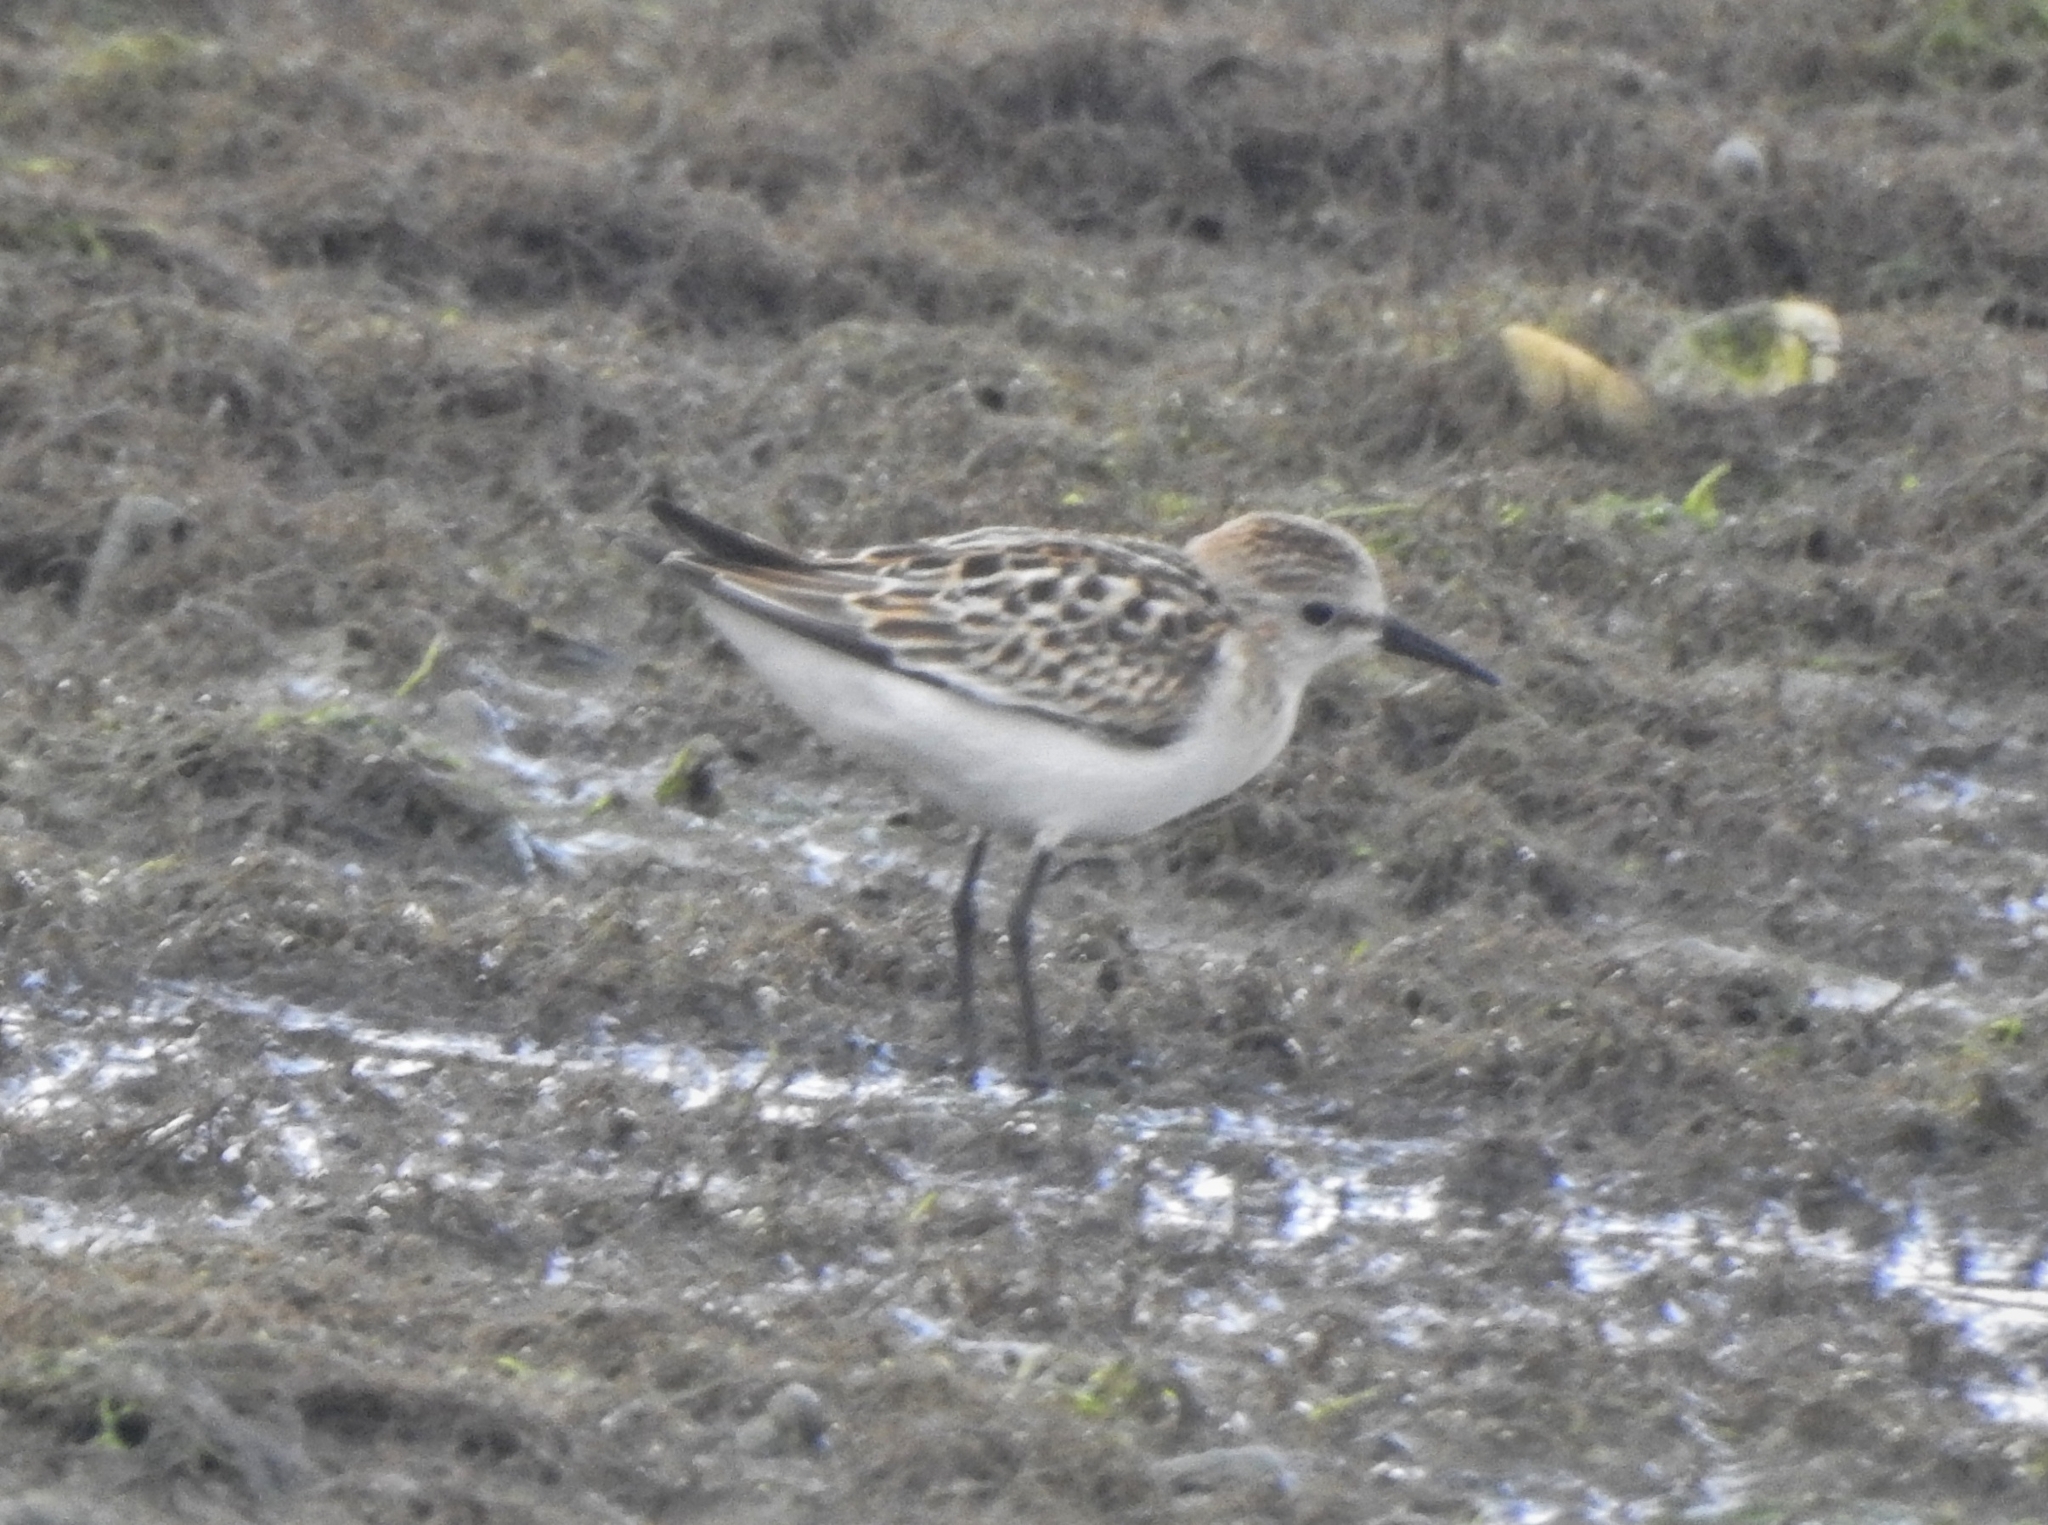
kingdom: Animalia
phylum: Chordata
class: Aves
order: Charadriiformes
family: Scolopacidae
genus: Calidris
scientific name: Calidris minuta
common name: Little stint
